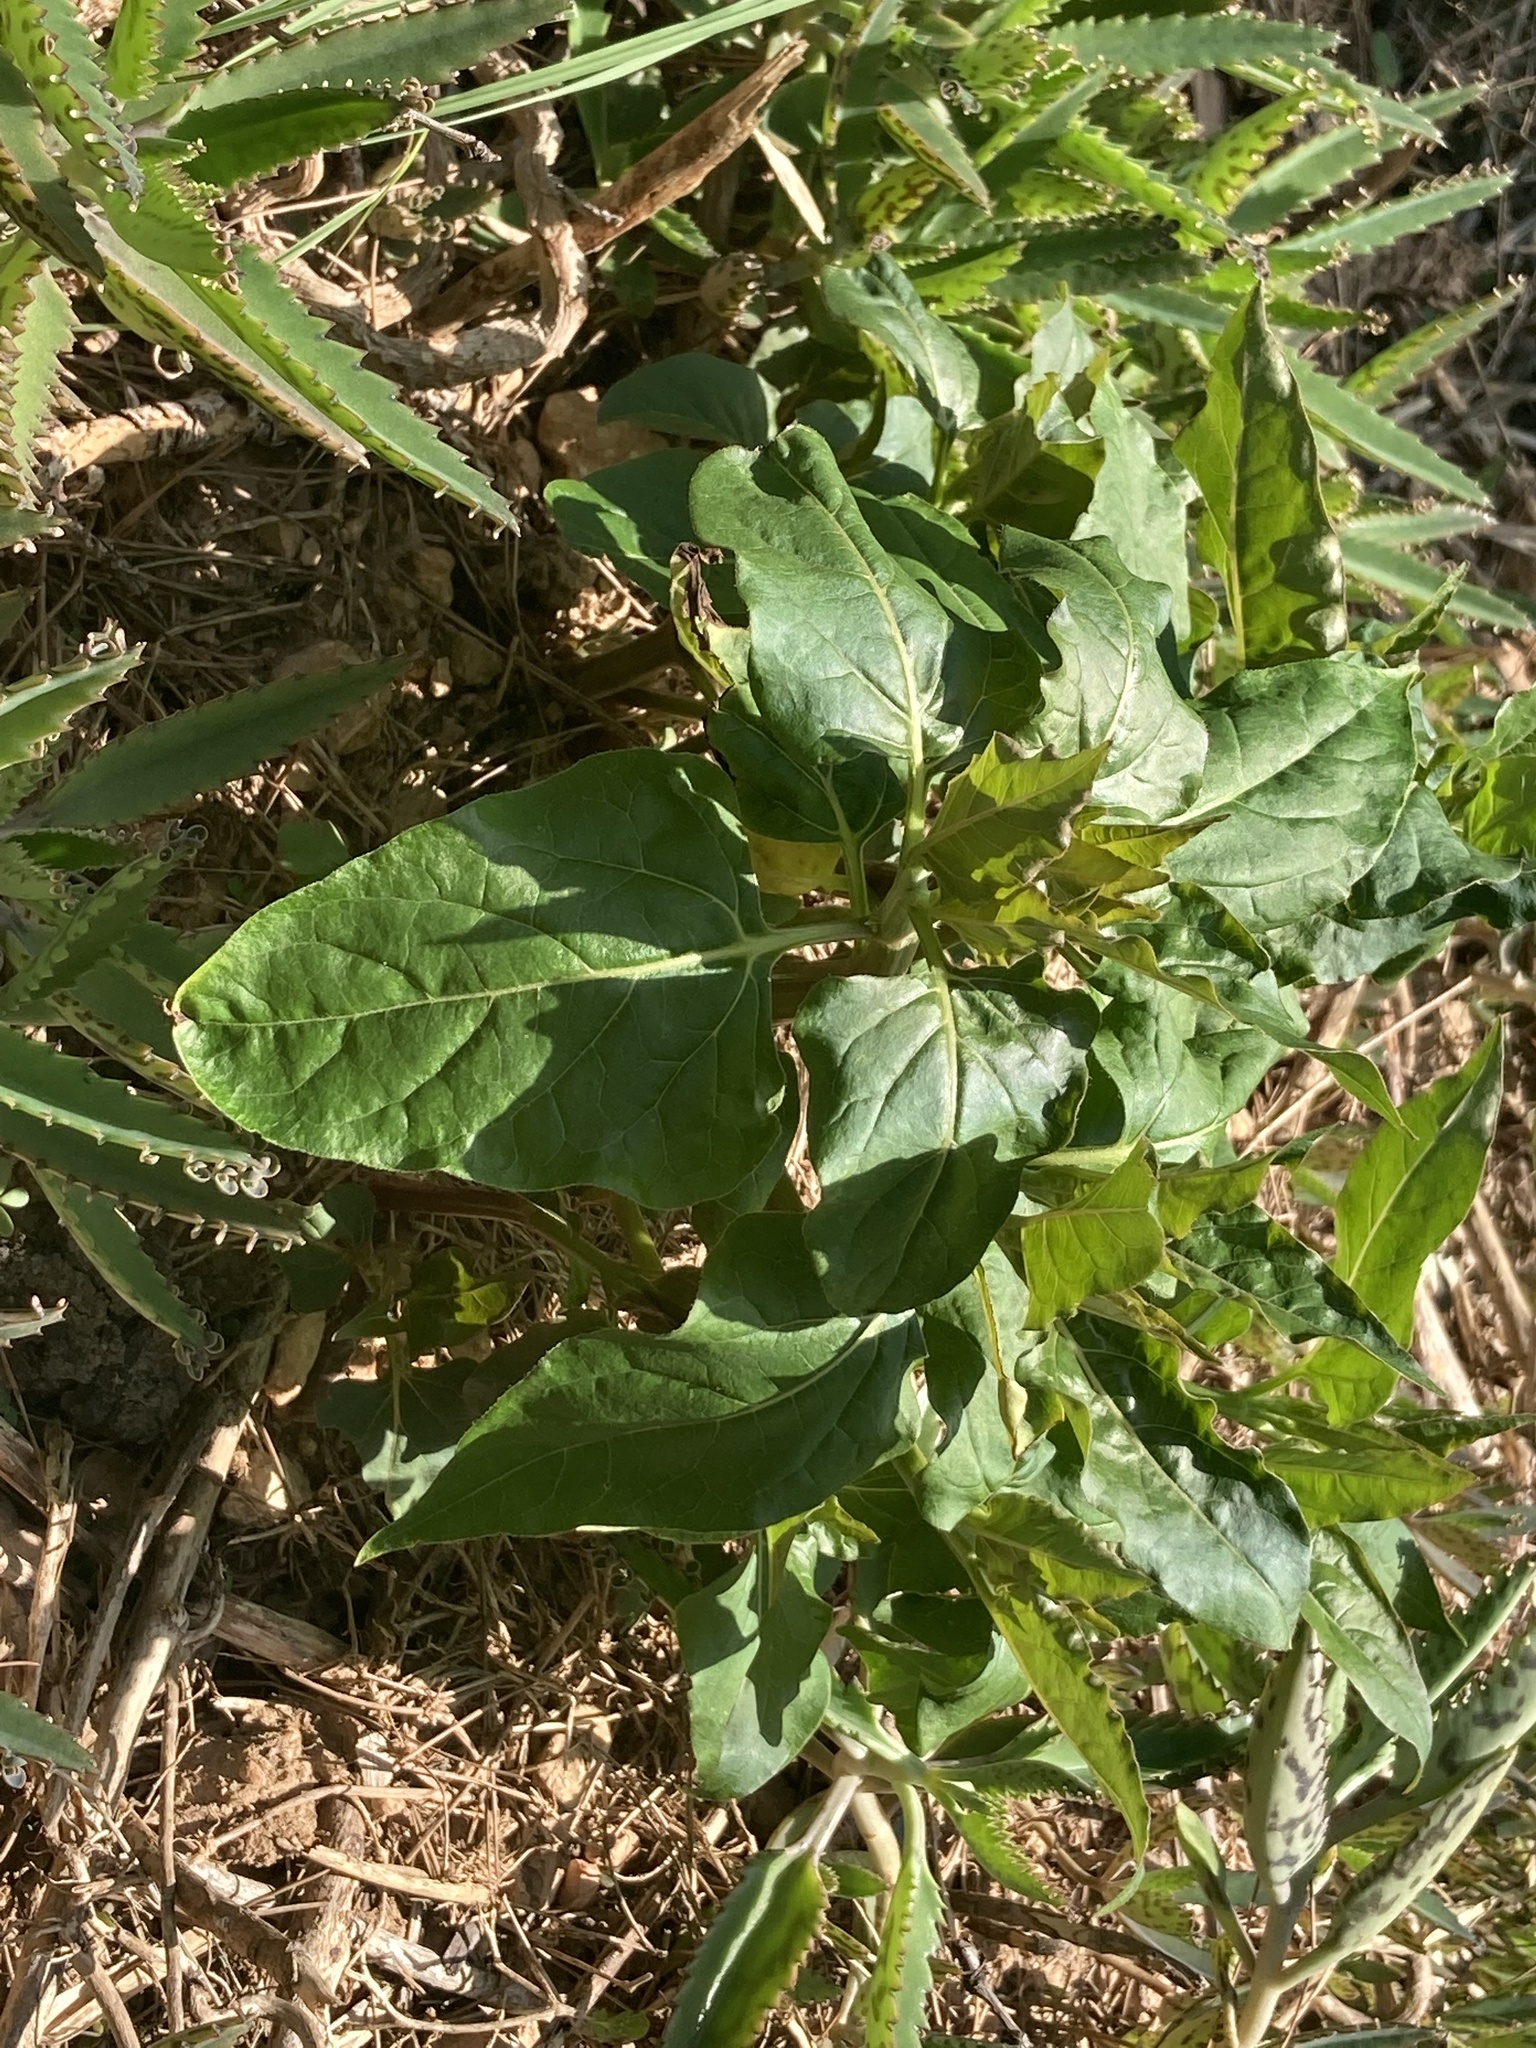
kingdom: Plantae
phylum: Tracheophyta
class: Magnoliopsida
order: Caryophyllales
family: Nyctaginaceae
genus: Mirabilis
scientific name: Mirabilis jalapa
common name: Marvel-of-peru
